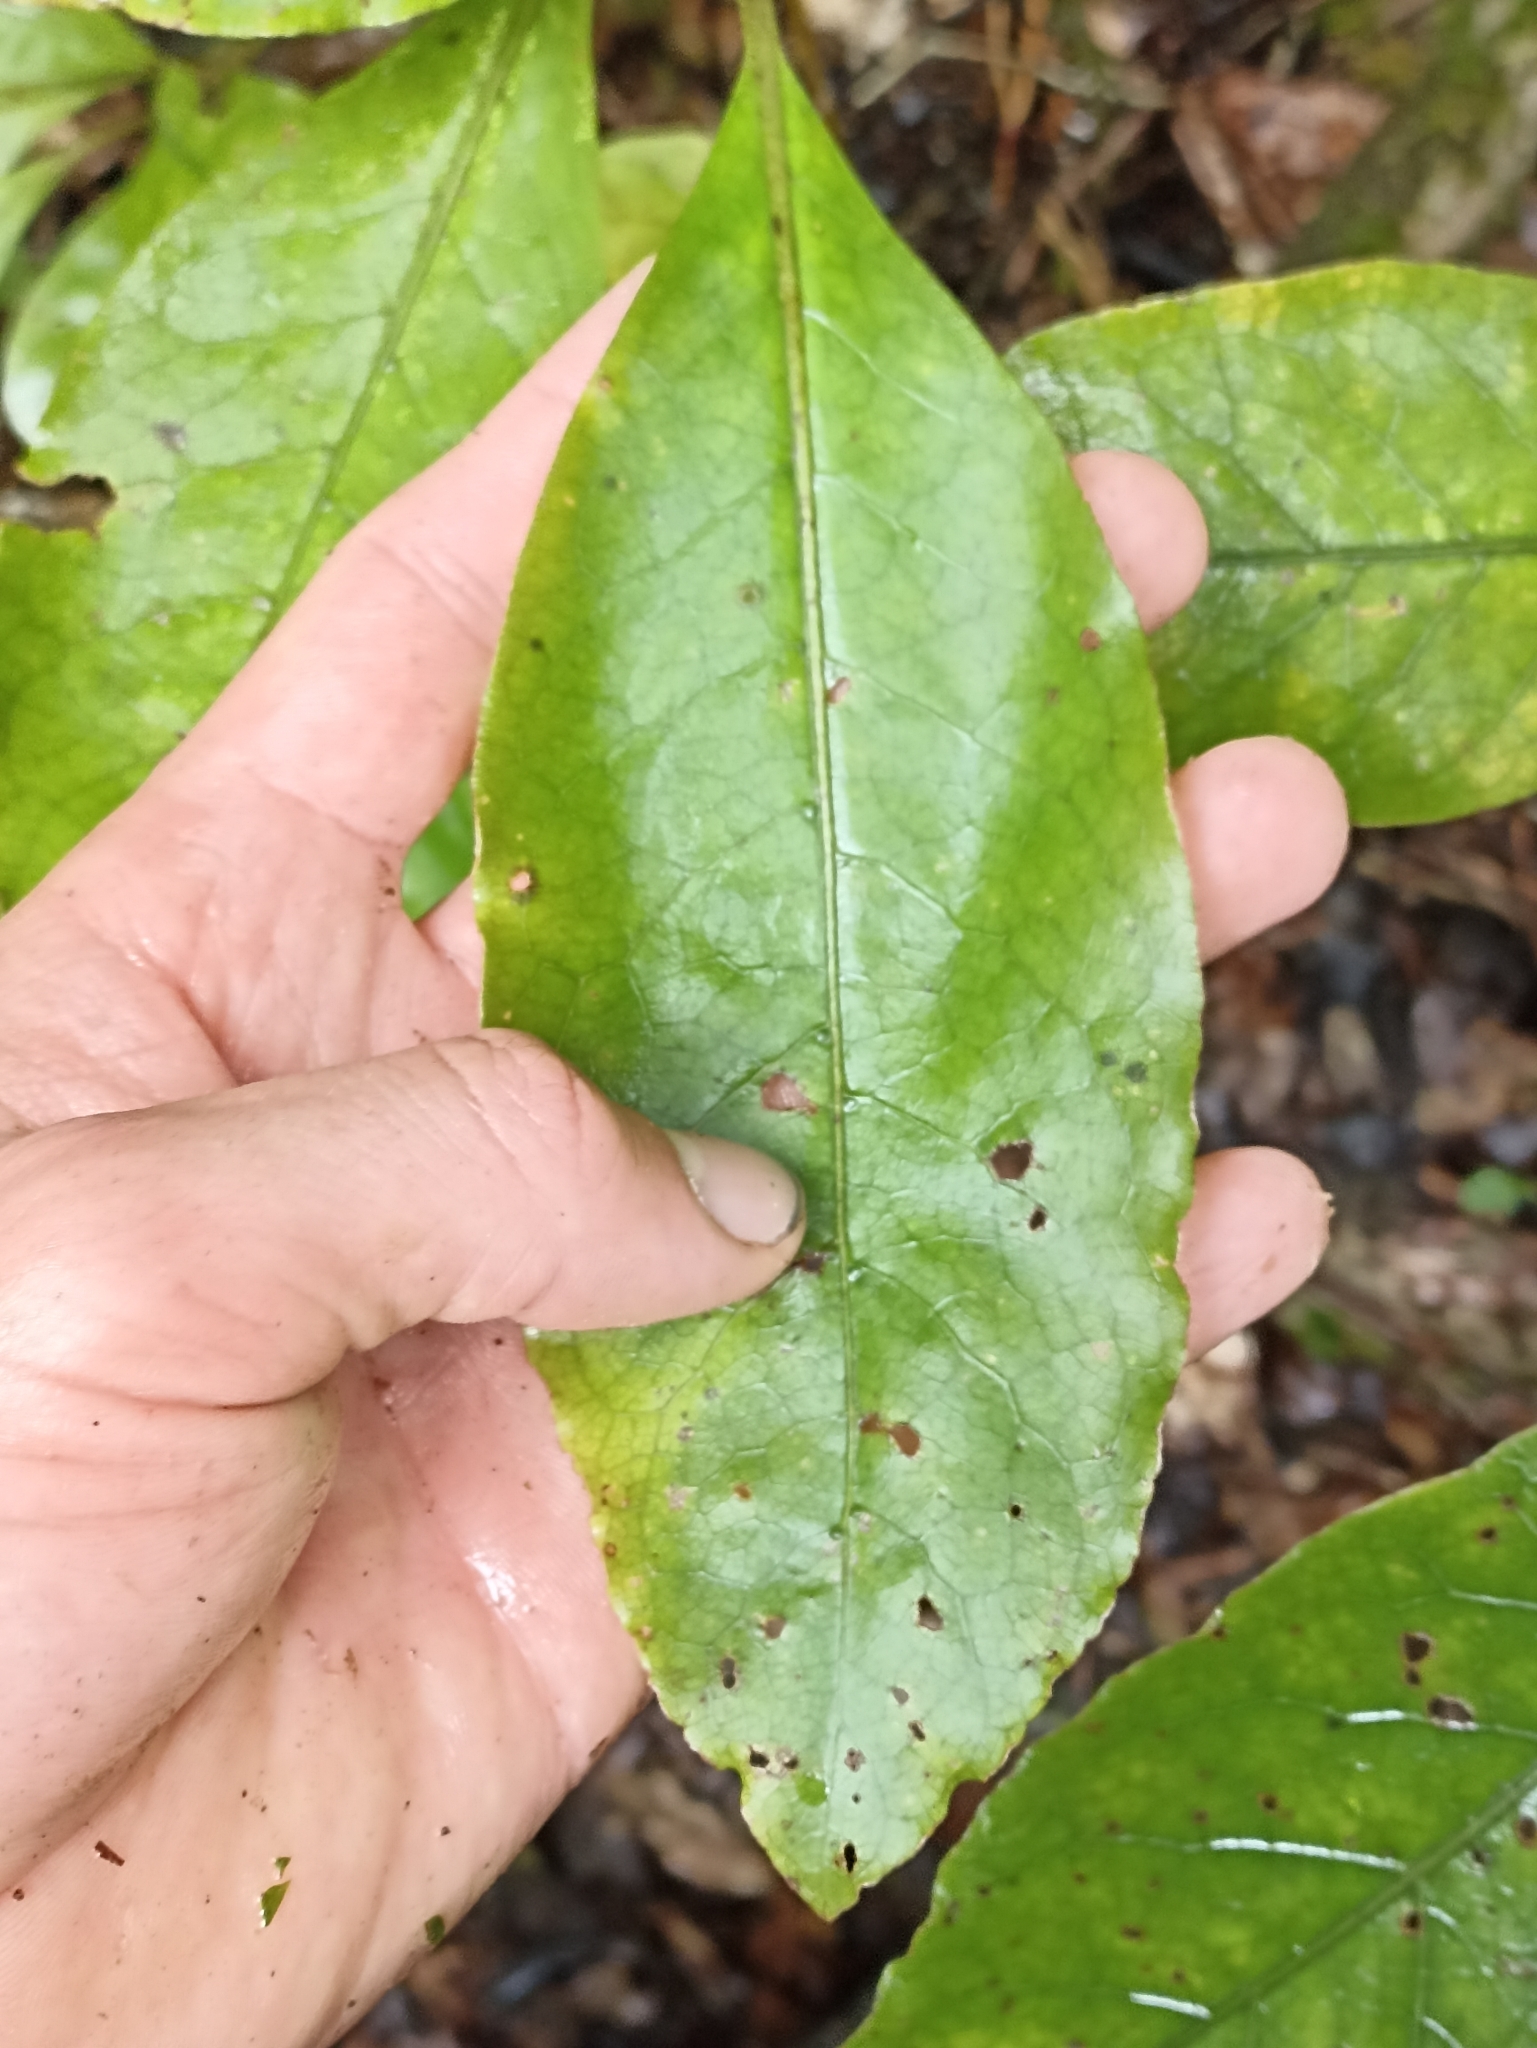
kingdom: Plantae
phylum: Tracheophyta
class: Magnoliopsida
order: Gentianales
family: Rubiaceae
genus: Coprosma
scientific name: Coprosma autumnalis
